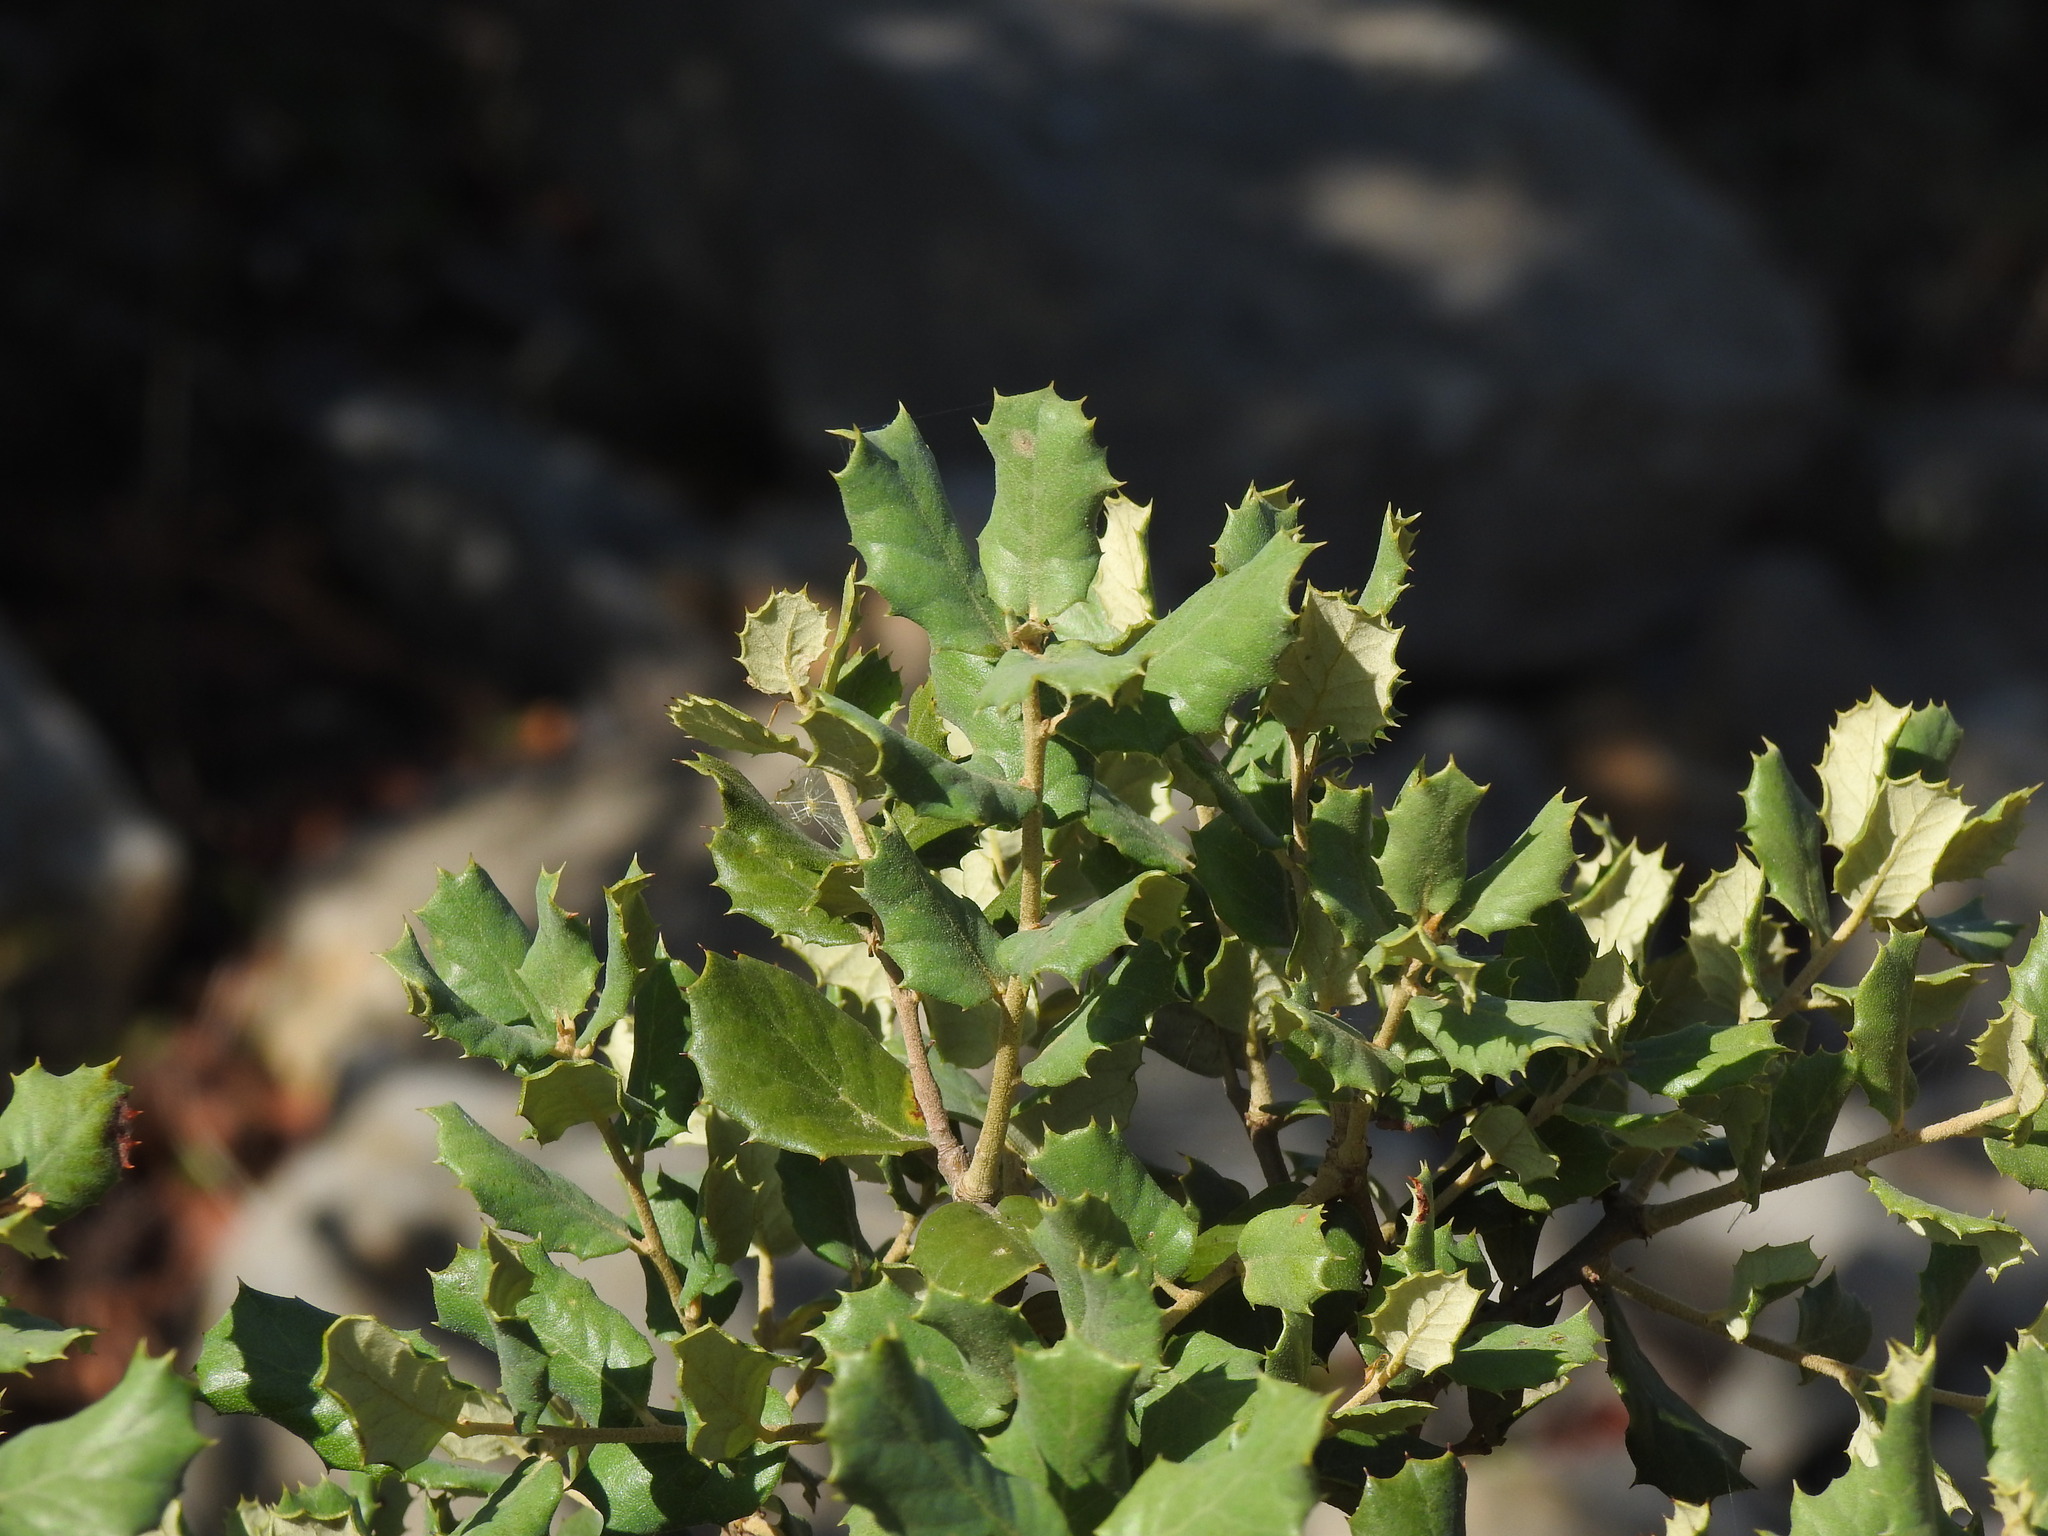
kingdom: Plantae
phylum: Tracheophyta
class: Magnoliopsida
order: Fagales
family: Fagaceae
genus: Quercus
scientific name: Quercus rotundifolia
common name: Holm oak
